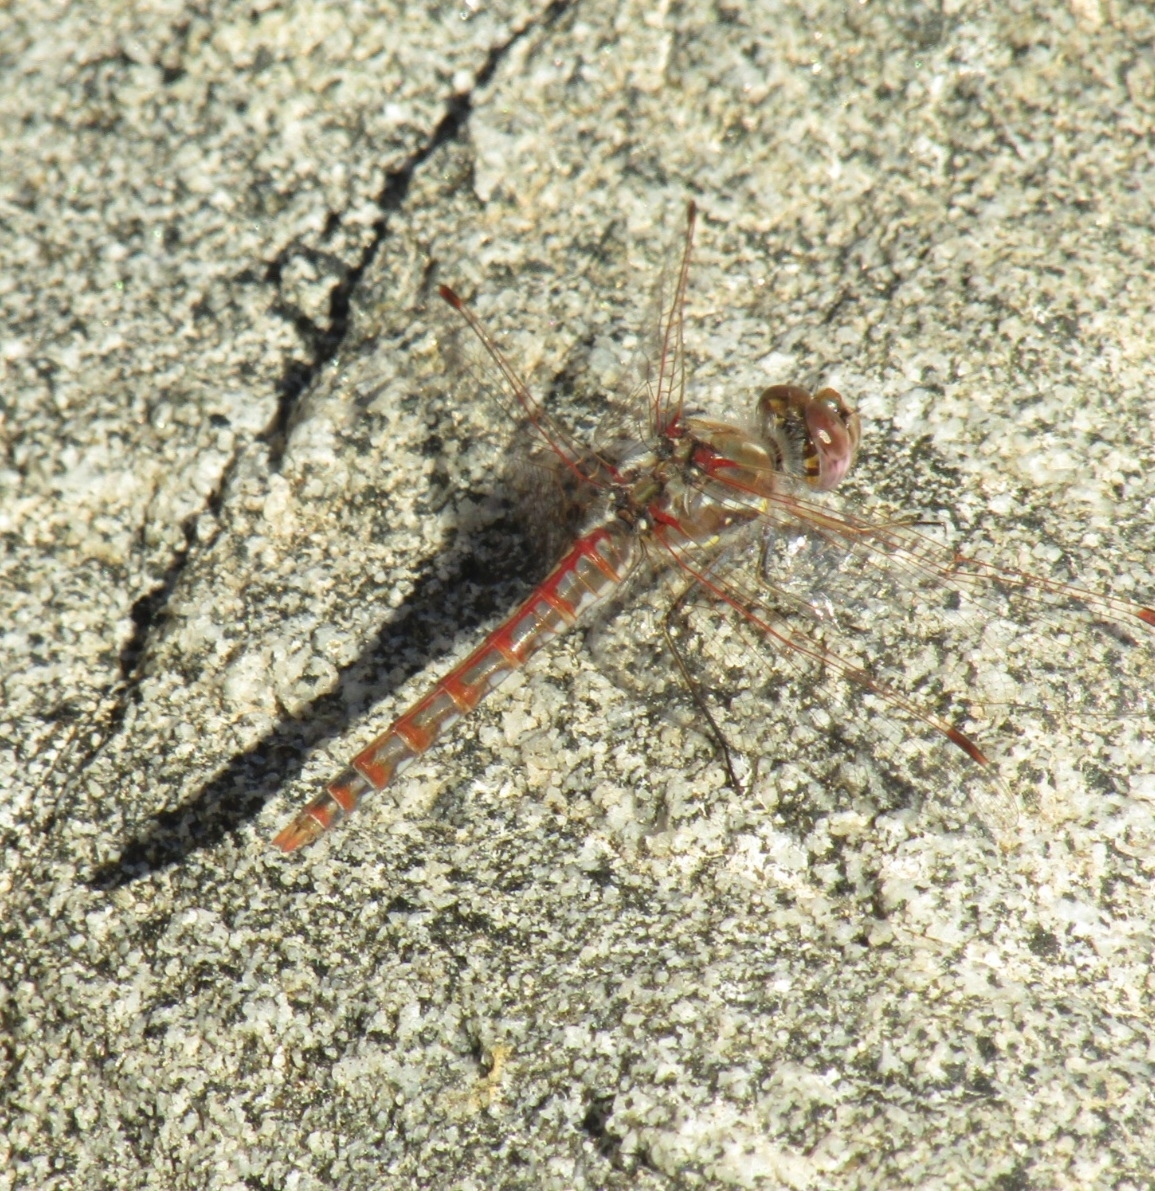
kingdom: Animalia
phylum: Arthropoda
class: Insecta
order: Odonata
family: Libellulidae
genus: Sympetrum
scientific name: Sympetrum corruptum
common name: Variegated meadowhawk
